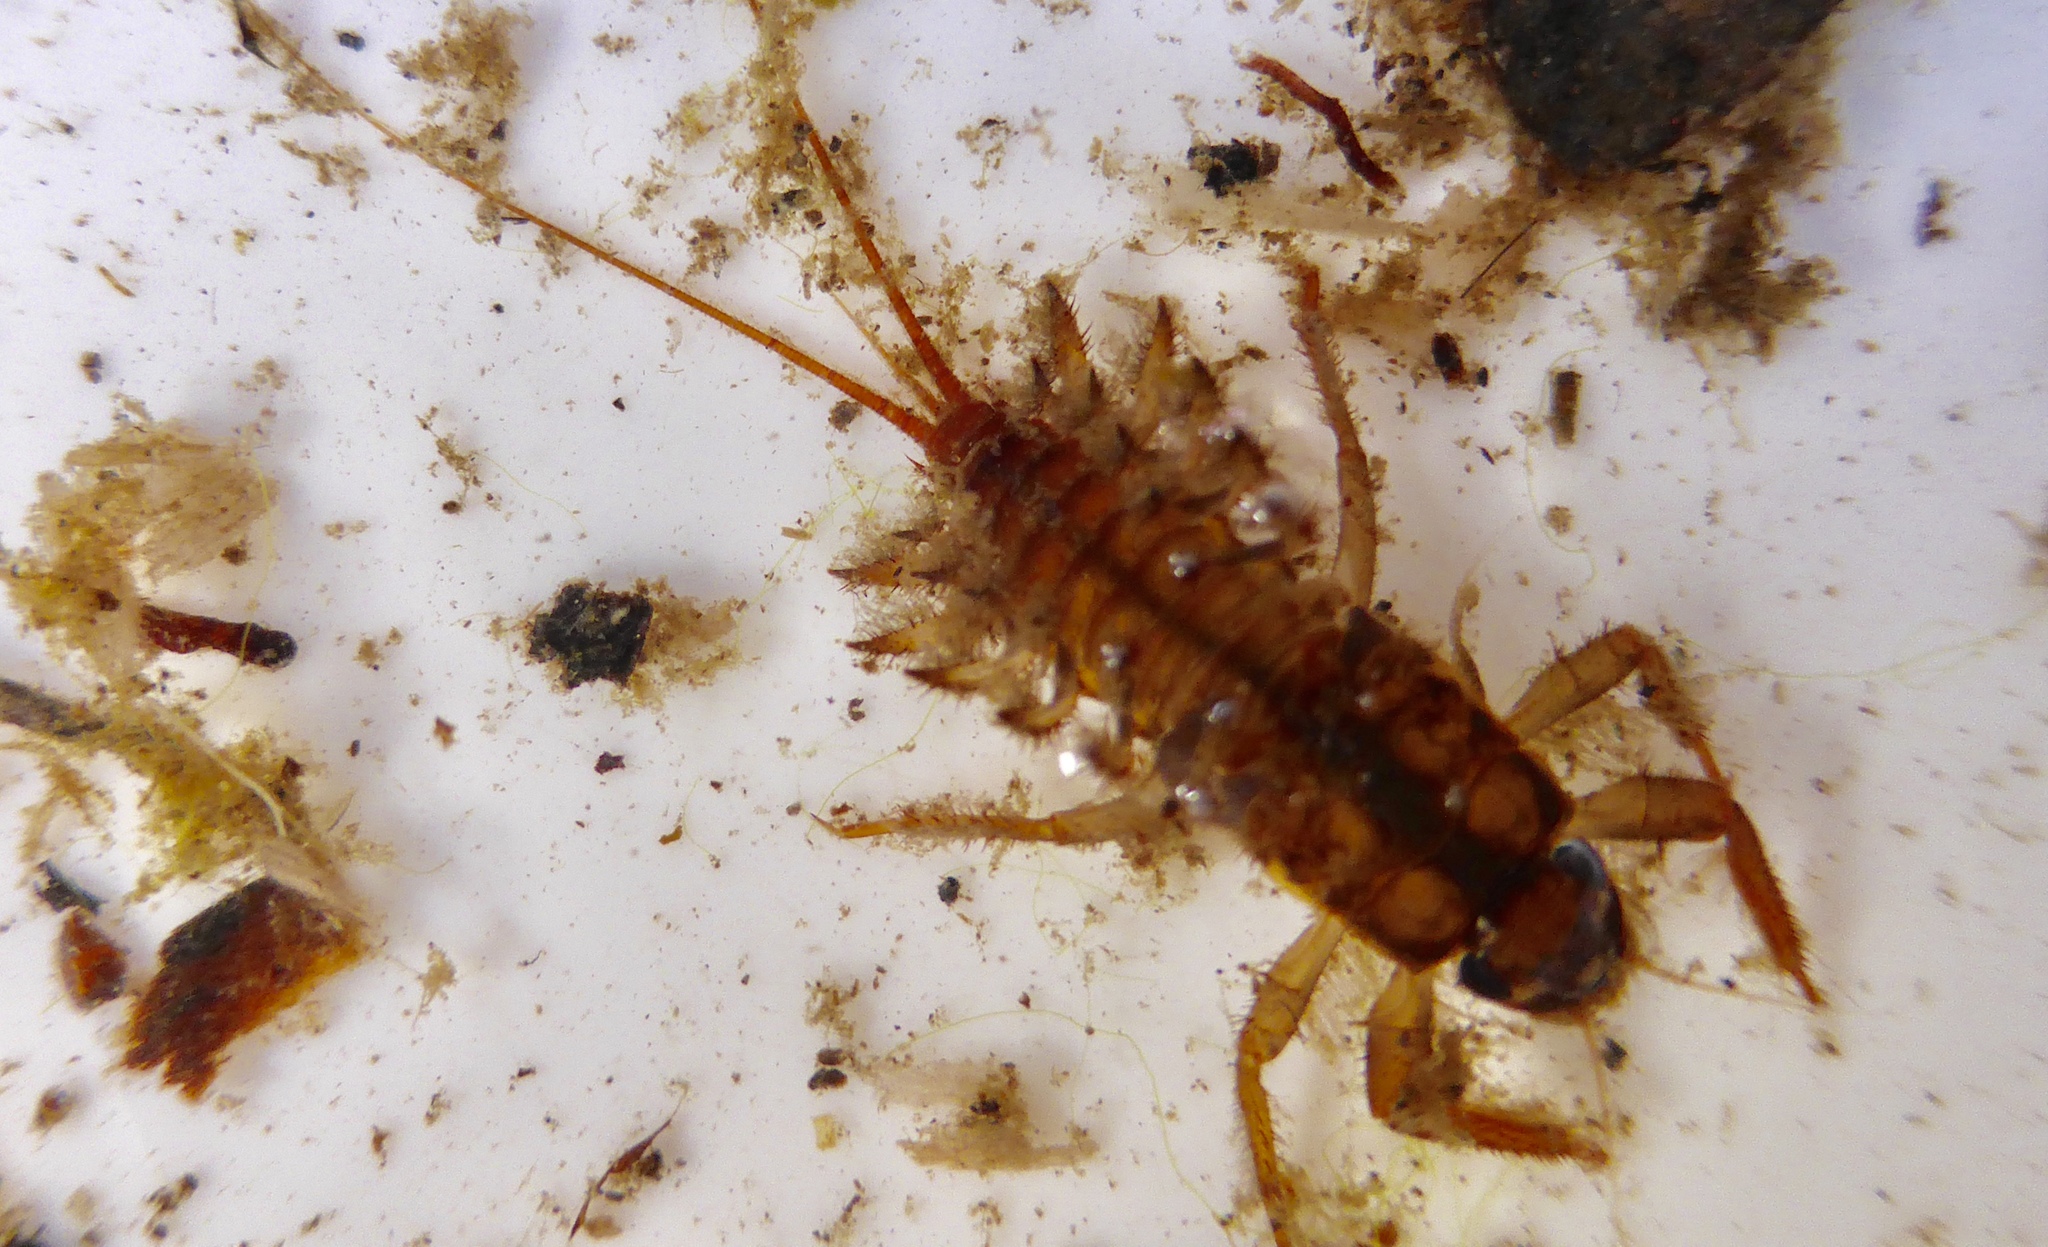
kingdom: Animalia
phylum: Arthropoda
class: Insecta
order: Ephemeroptera
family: Coloburiscidae
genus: Coloburiscus
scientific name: Coloburiscus humeralis
